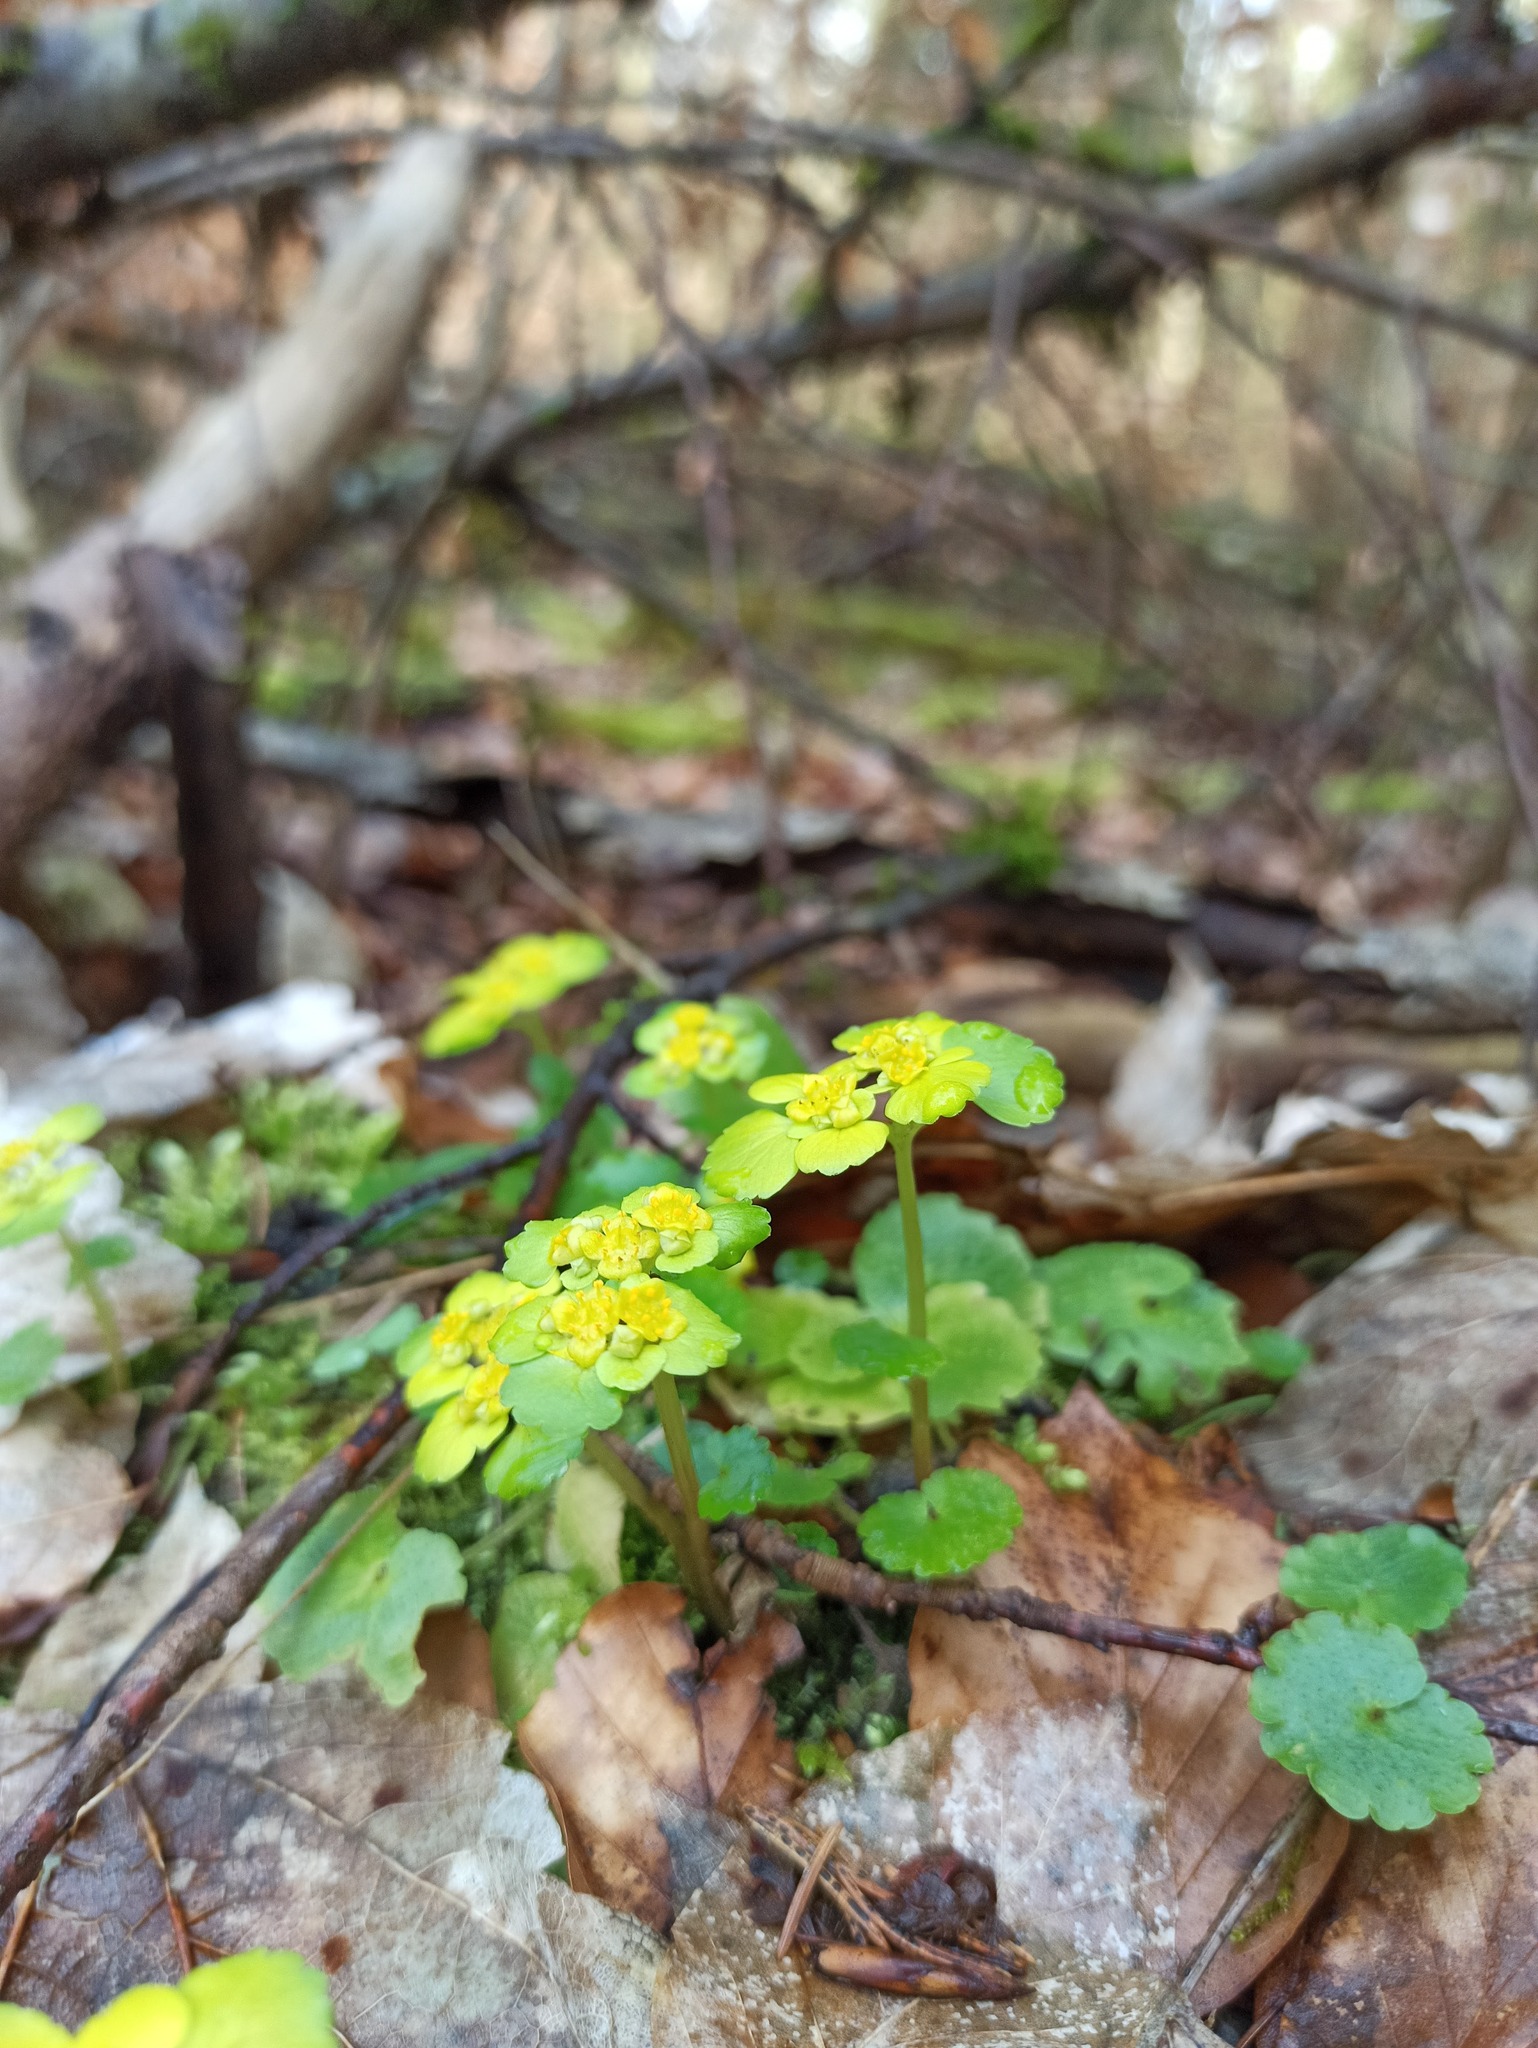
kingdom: Plantae
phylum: Tracheophyta
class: Magnoliopsida
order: Saxifragales
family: Saxifragaceae
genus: Chrysosplenium
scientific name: Chrysosplenium alternifolium
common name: Alternate-leaved golden-saxifrage
